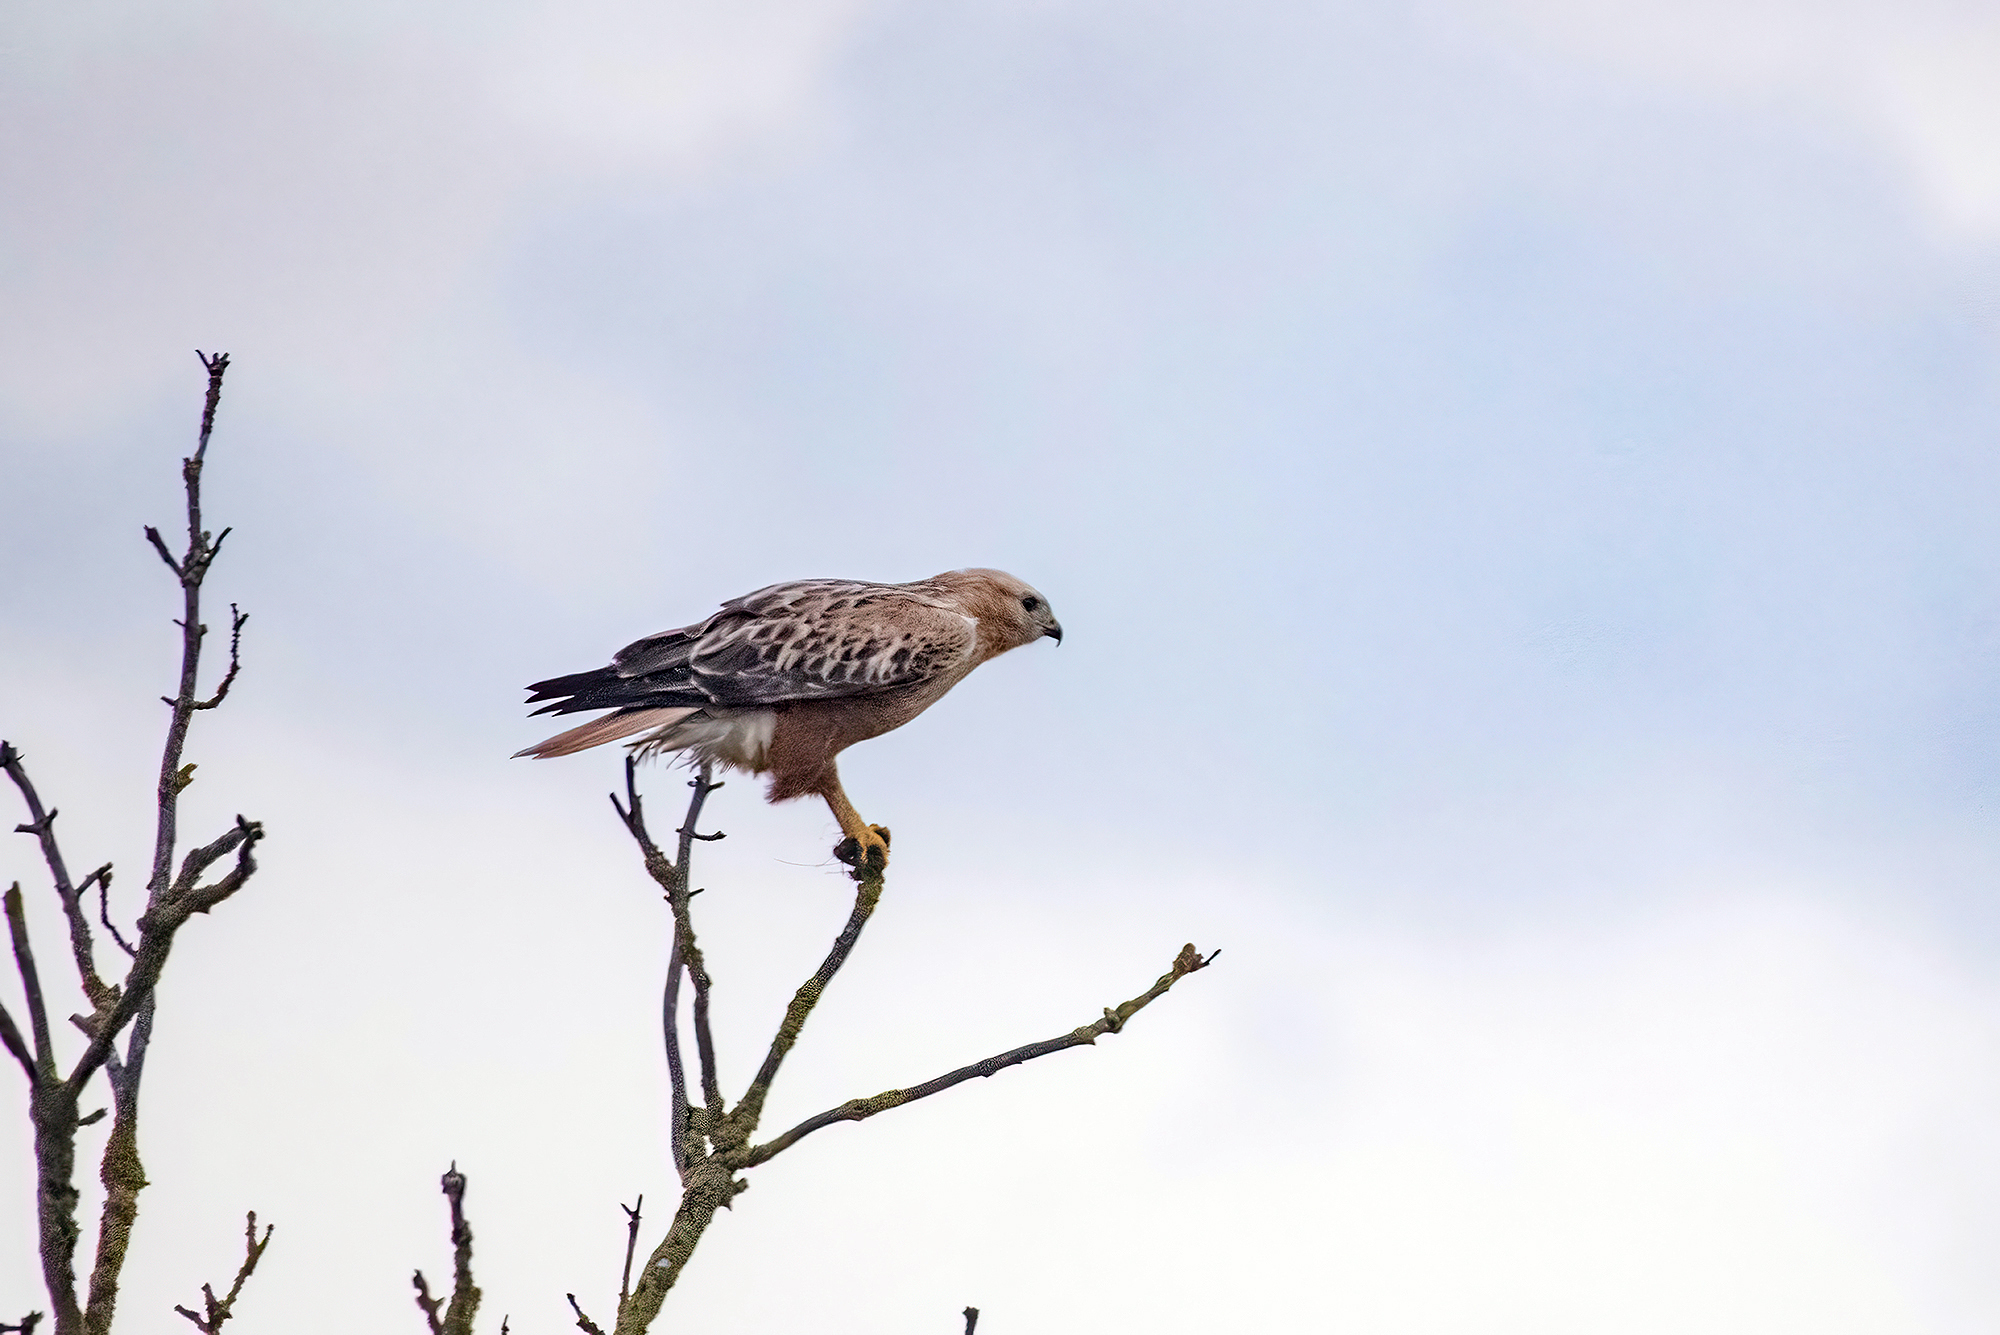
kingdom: Animalia
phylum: Chordata
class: Aves
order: Accipitriformes
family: Accipitridae
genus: Buteo
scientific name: Buteo rufinus
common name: Long-legged buzzard
